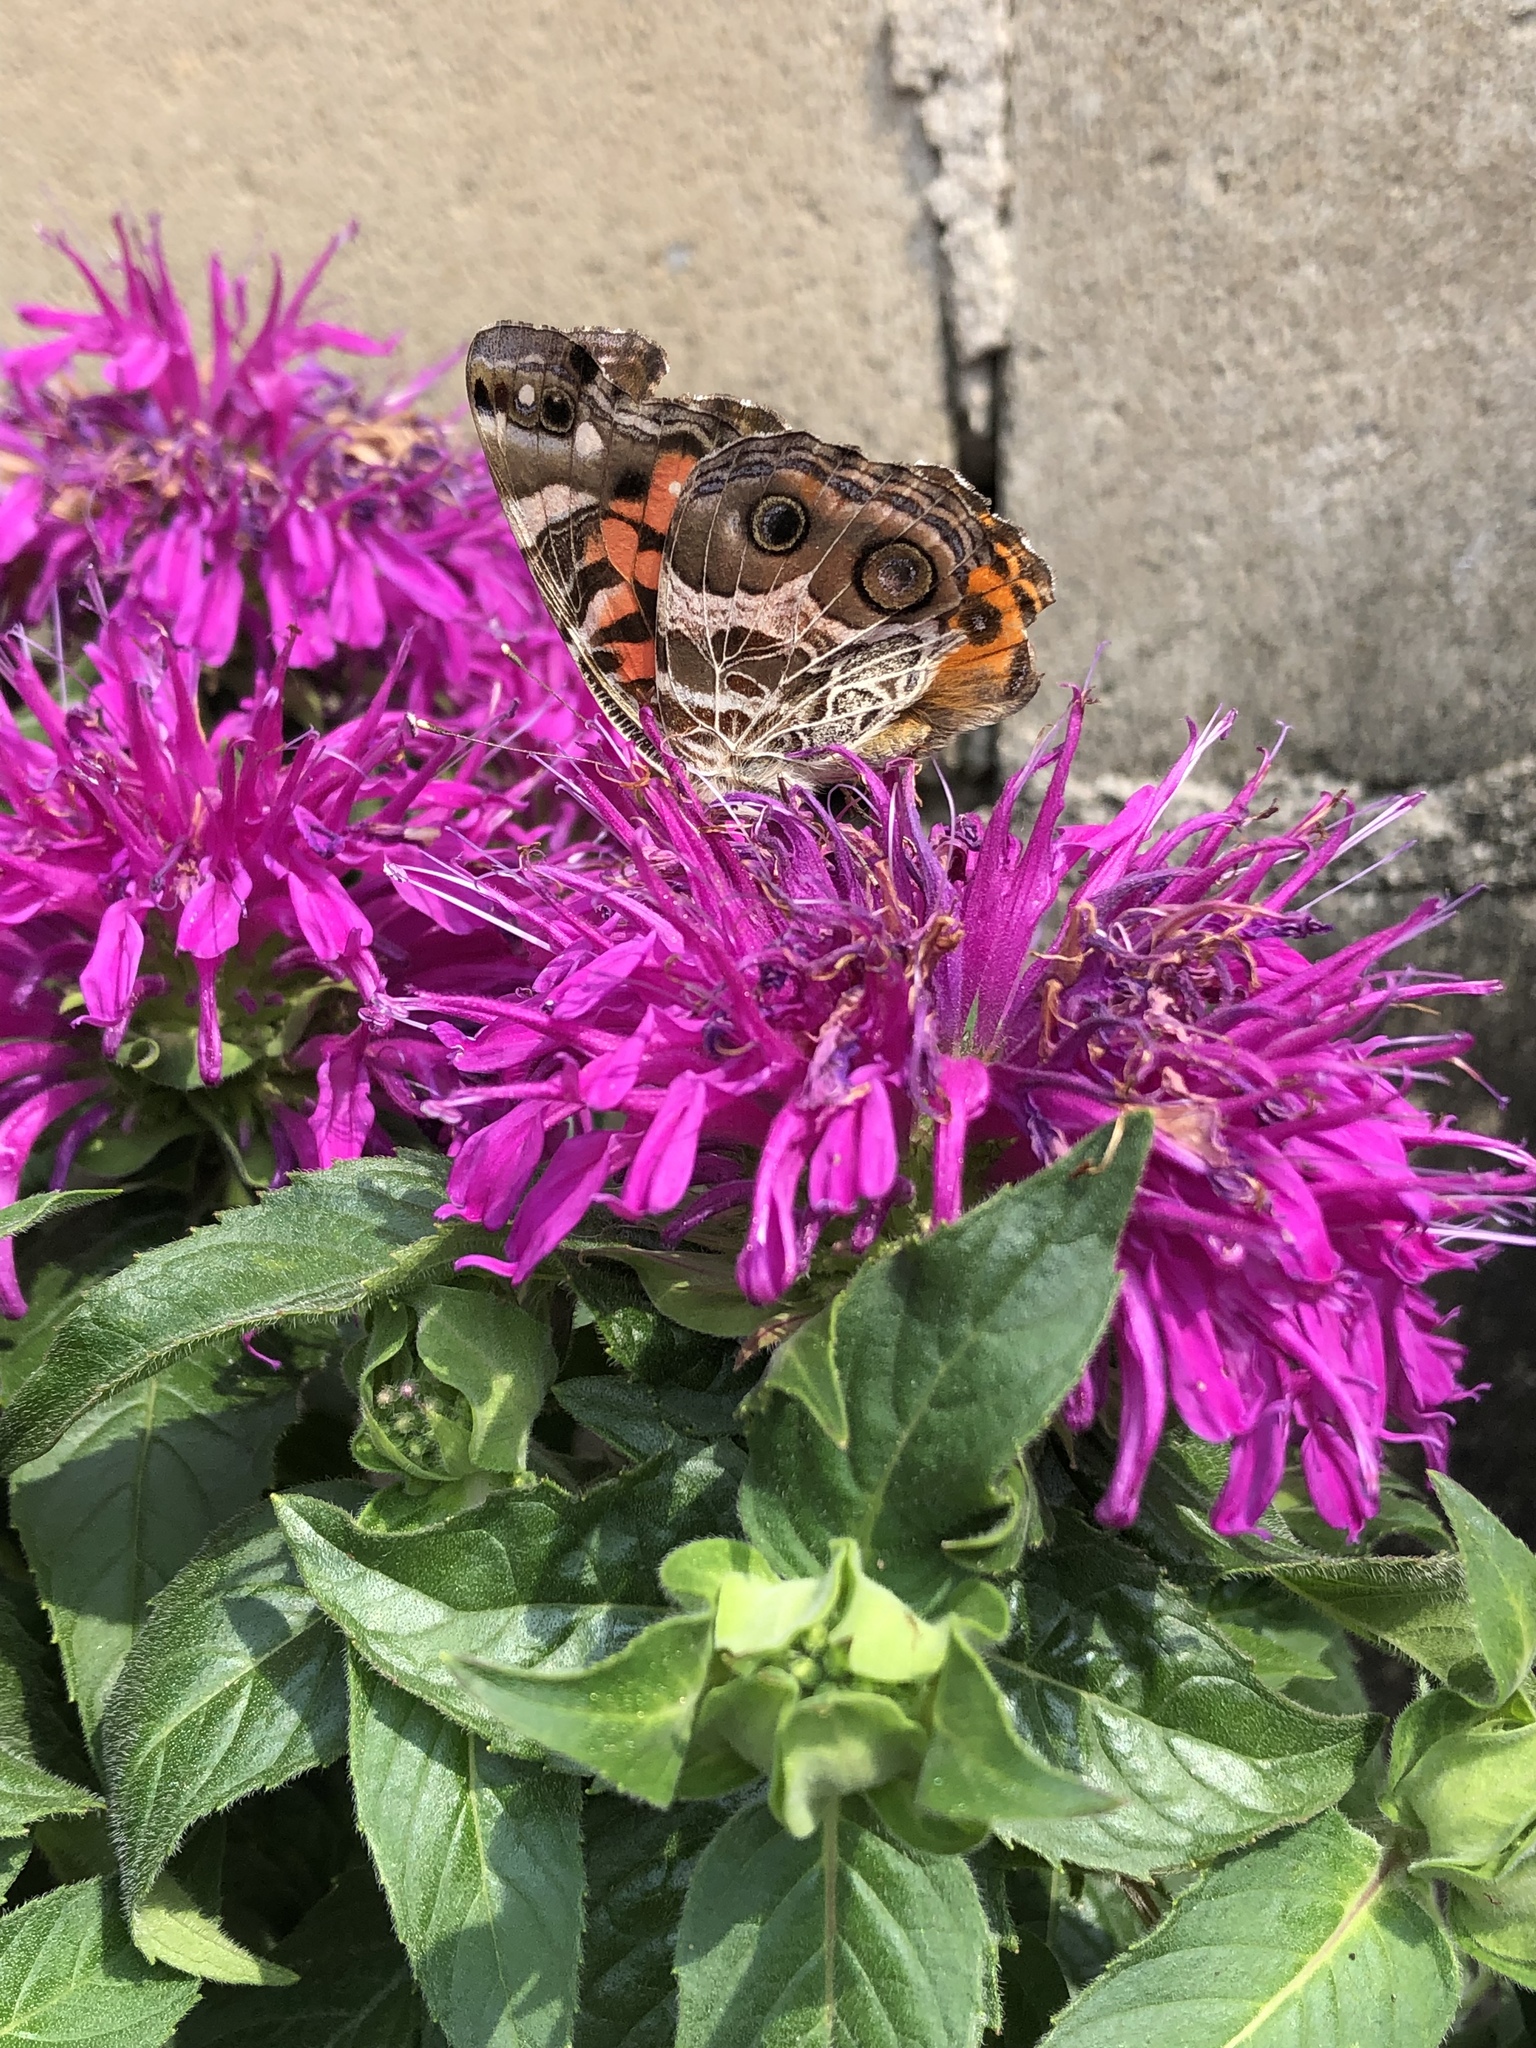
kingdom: Animalia
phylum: Arthropoda
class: Insecta
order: Lepidoptera
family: Nymphalidae
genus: Vanessa
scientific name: Vanessa virginiensis
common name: American lady
